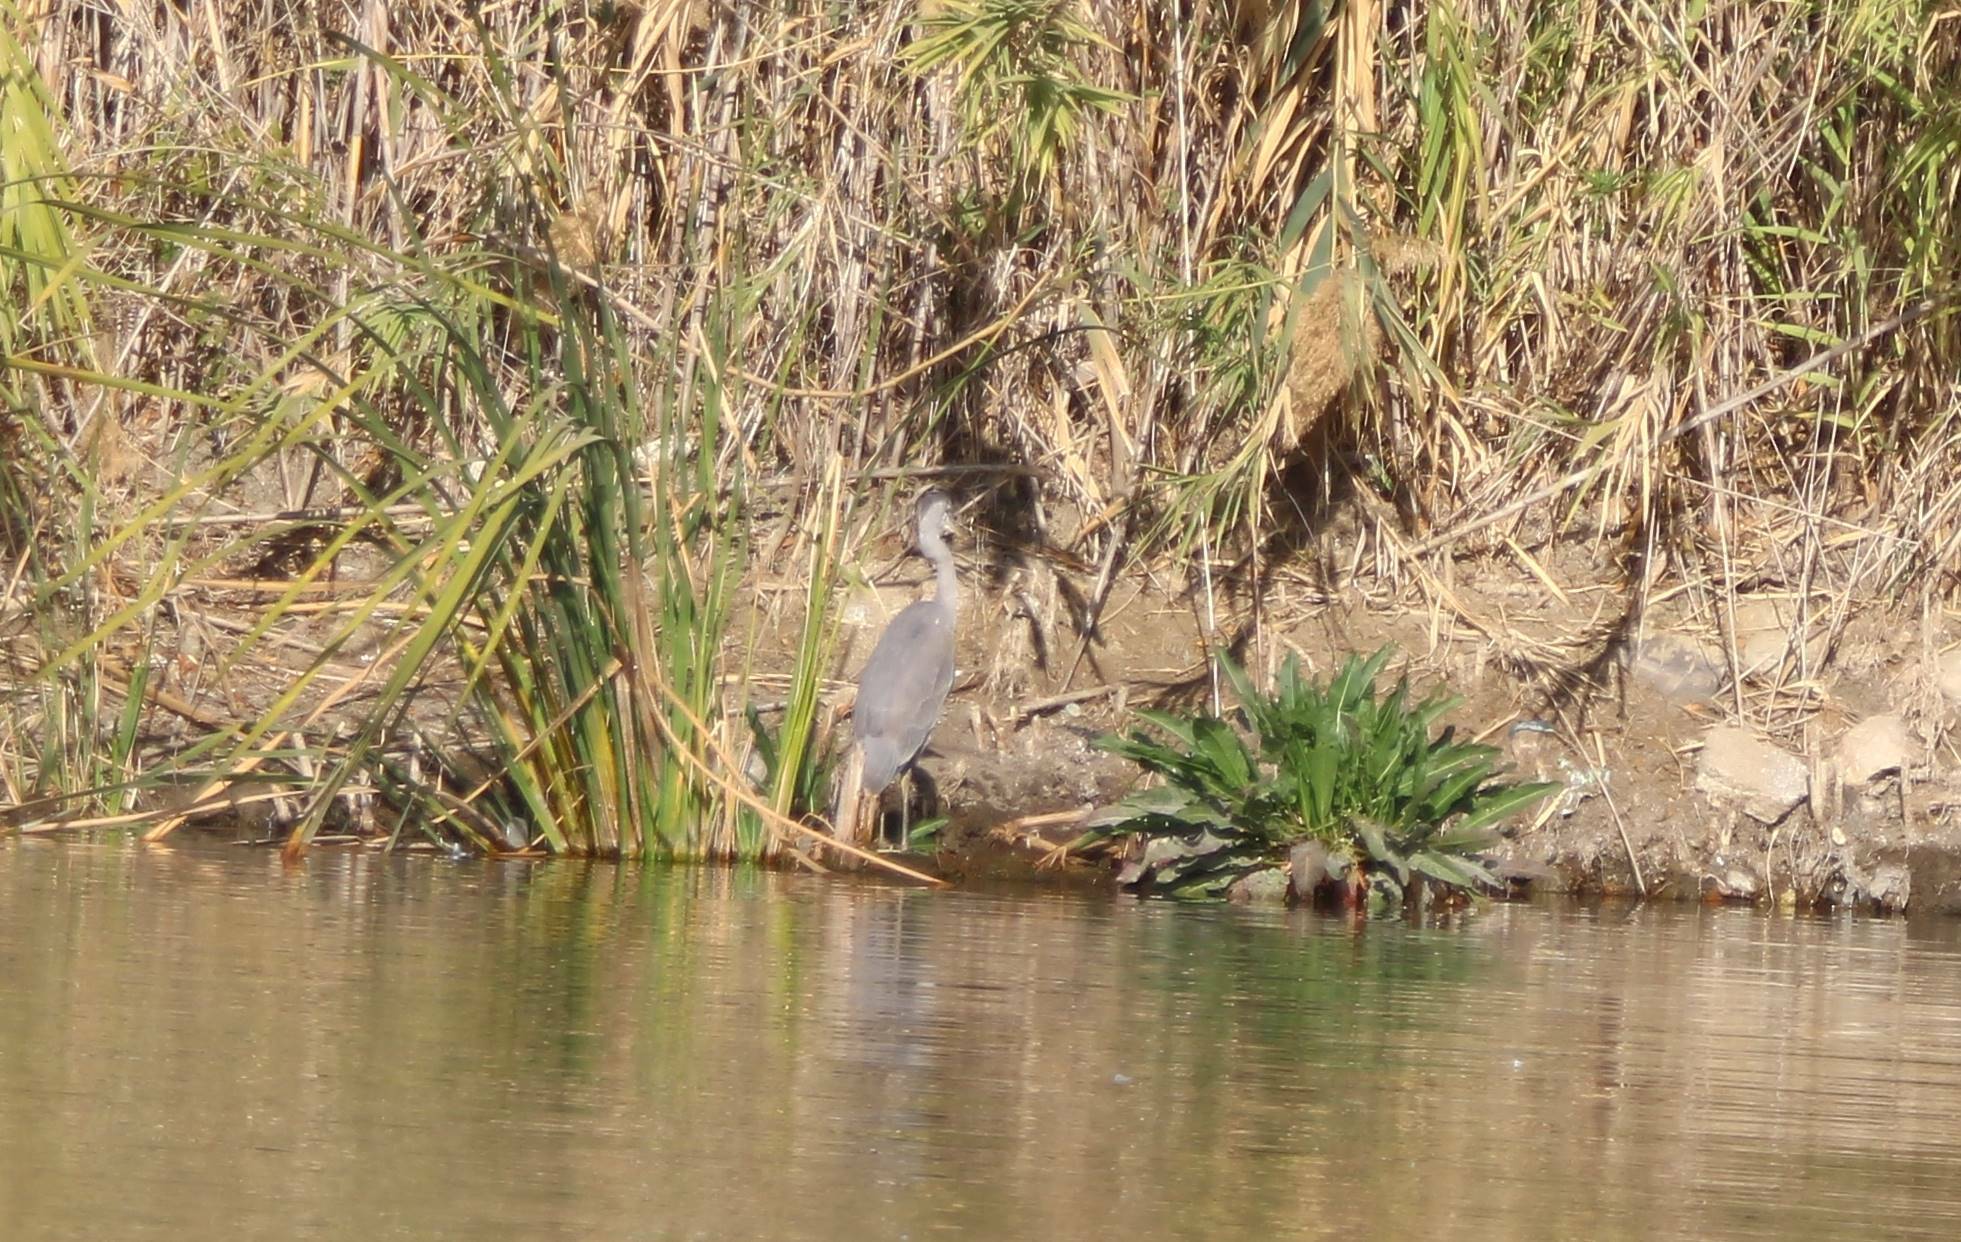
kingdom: Animalia
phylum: Chordata
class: Aves
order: Pelecaniformes
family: Ardeidae
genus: Ardea
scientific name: Ardea cinerea
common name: Grey heron
